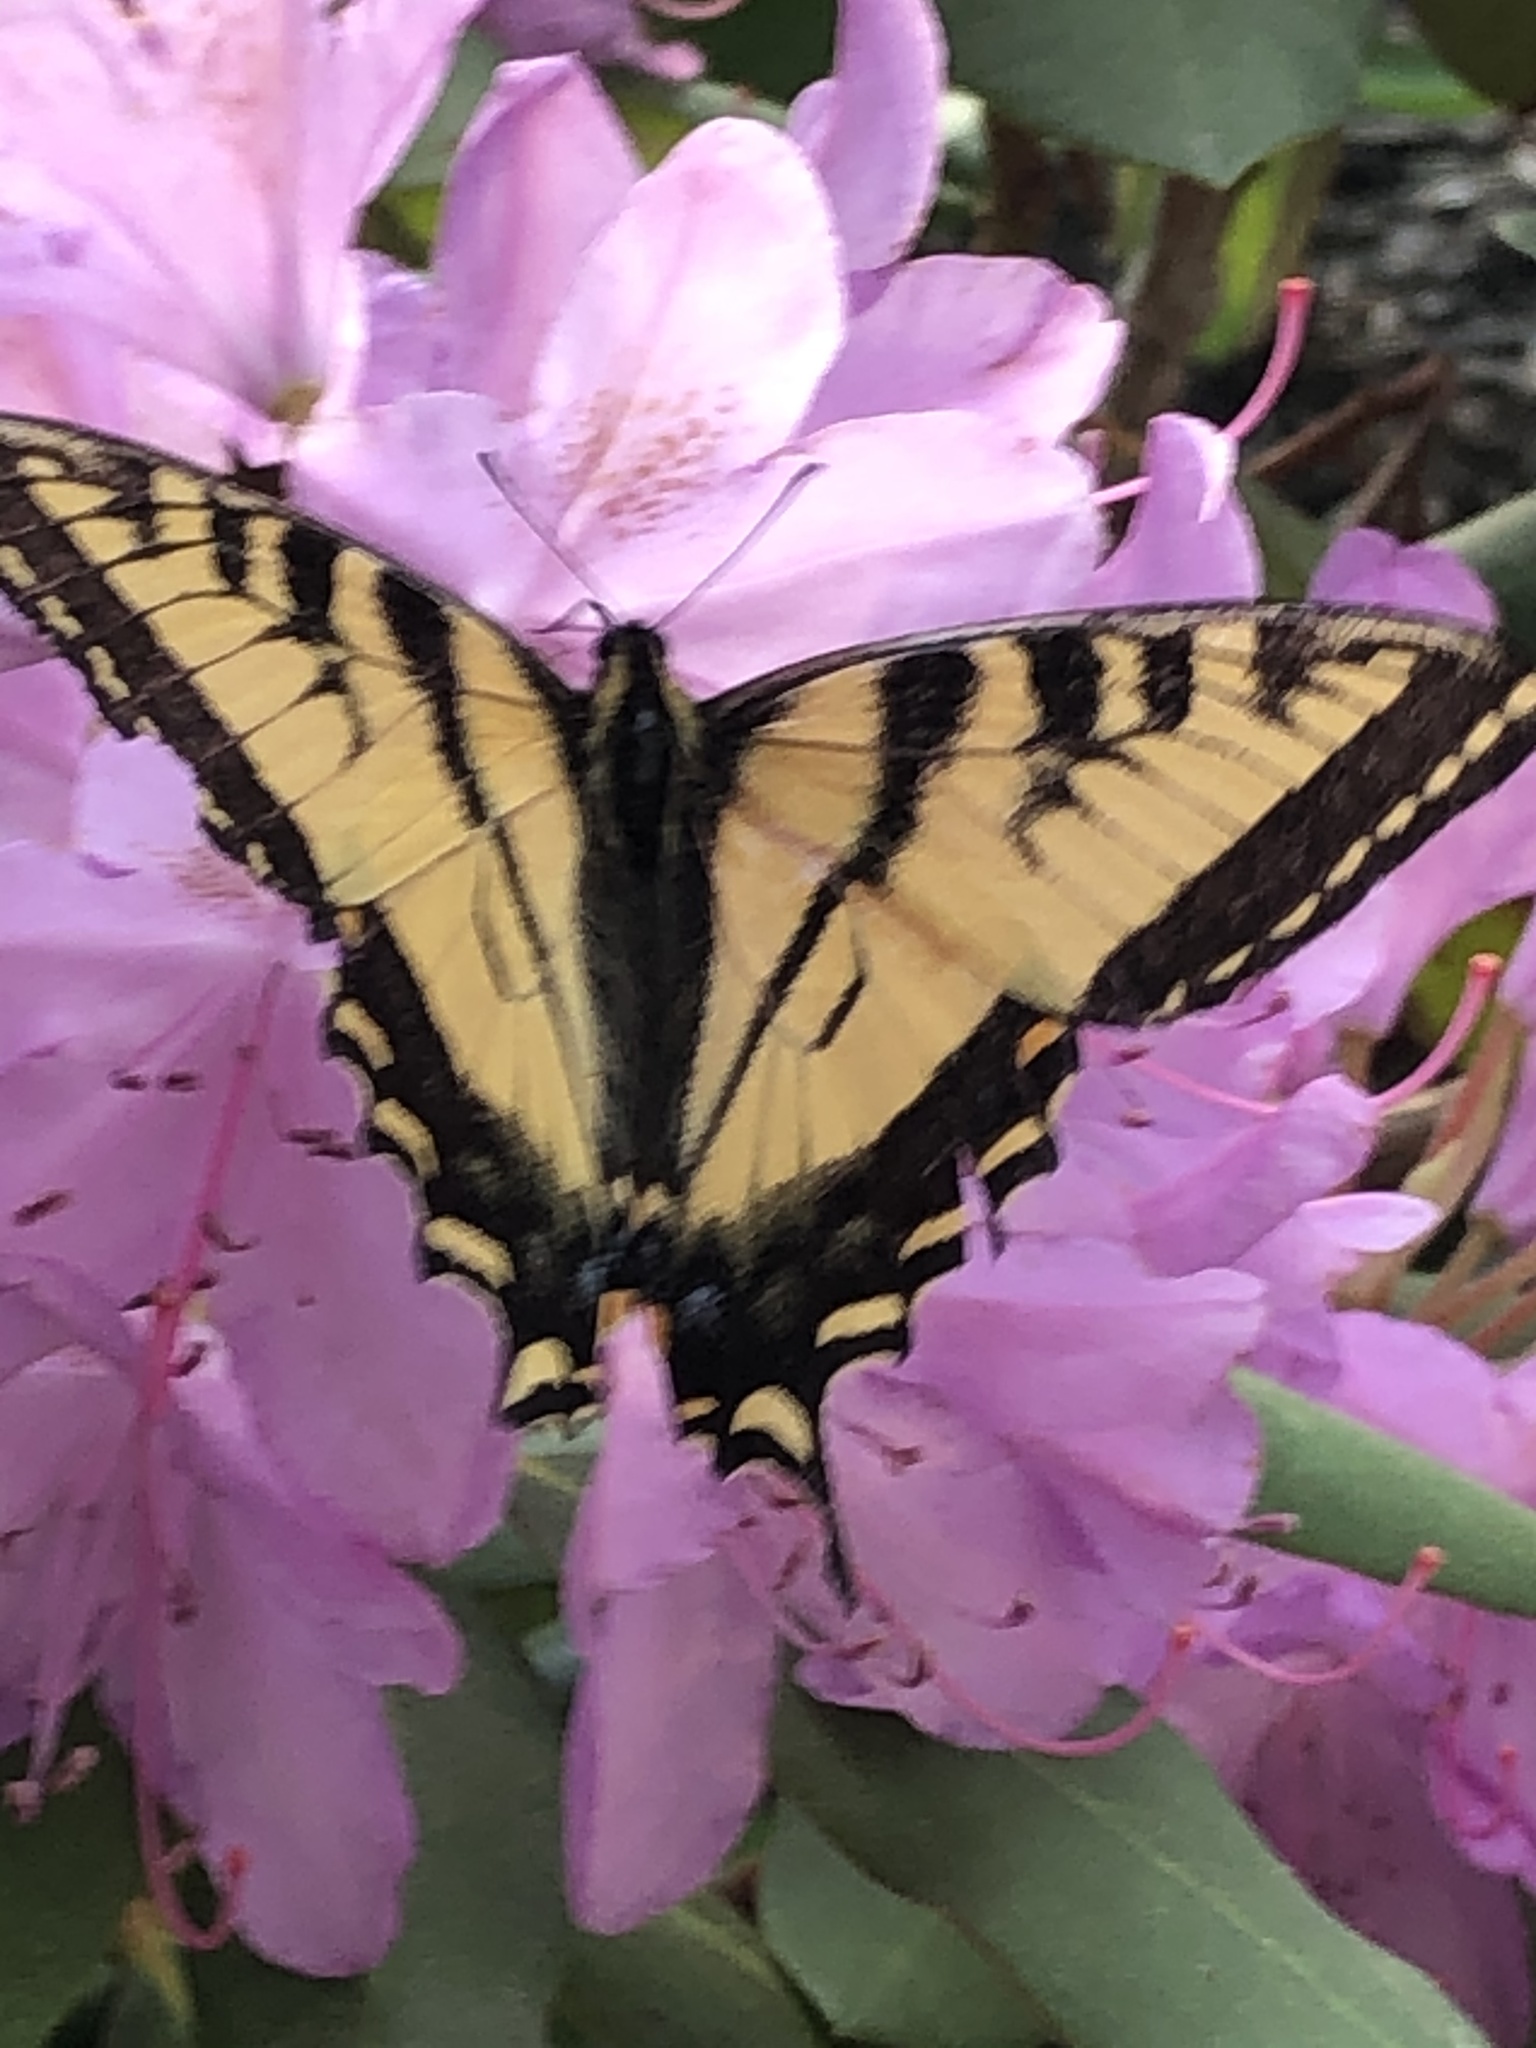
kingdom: Animalia
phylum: Arthropoda
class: Insecta
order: Lepidoptera
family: Papilionidae
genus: Papilio
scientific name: Papilio canadensis
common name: Canadian tiger swallowtail
